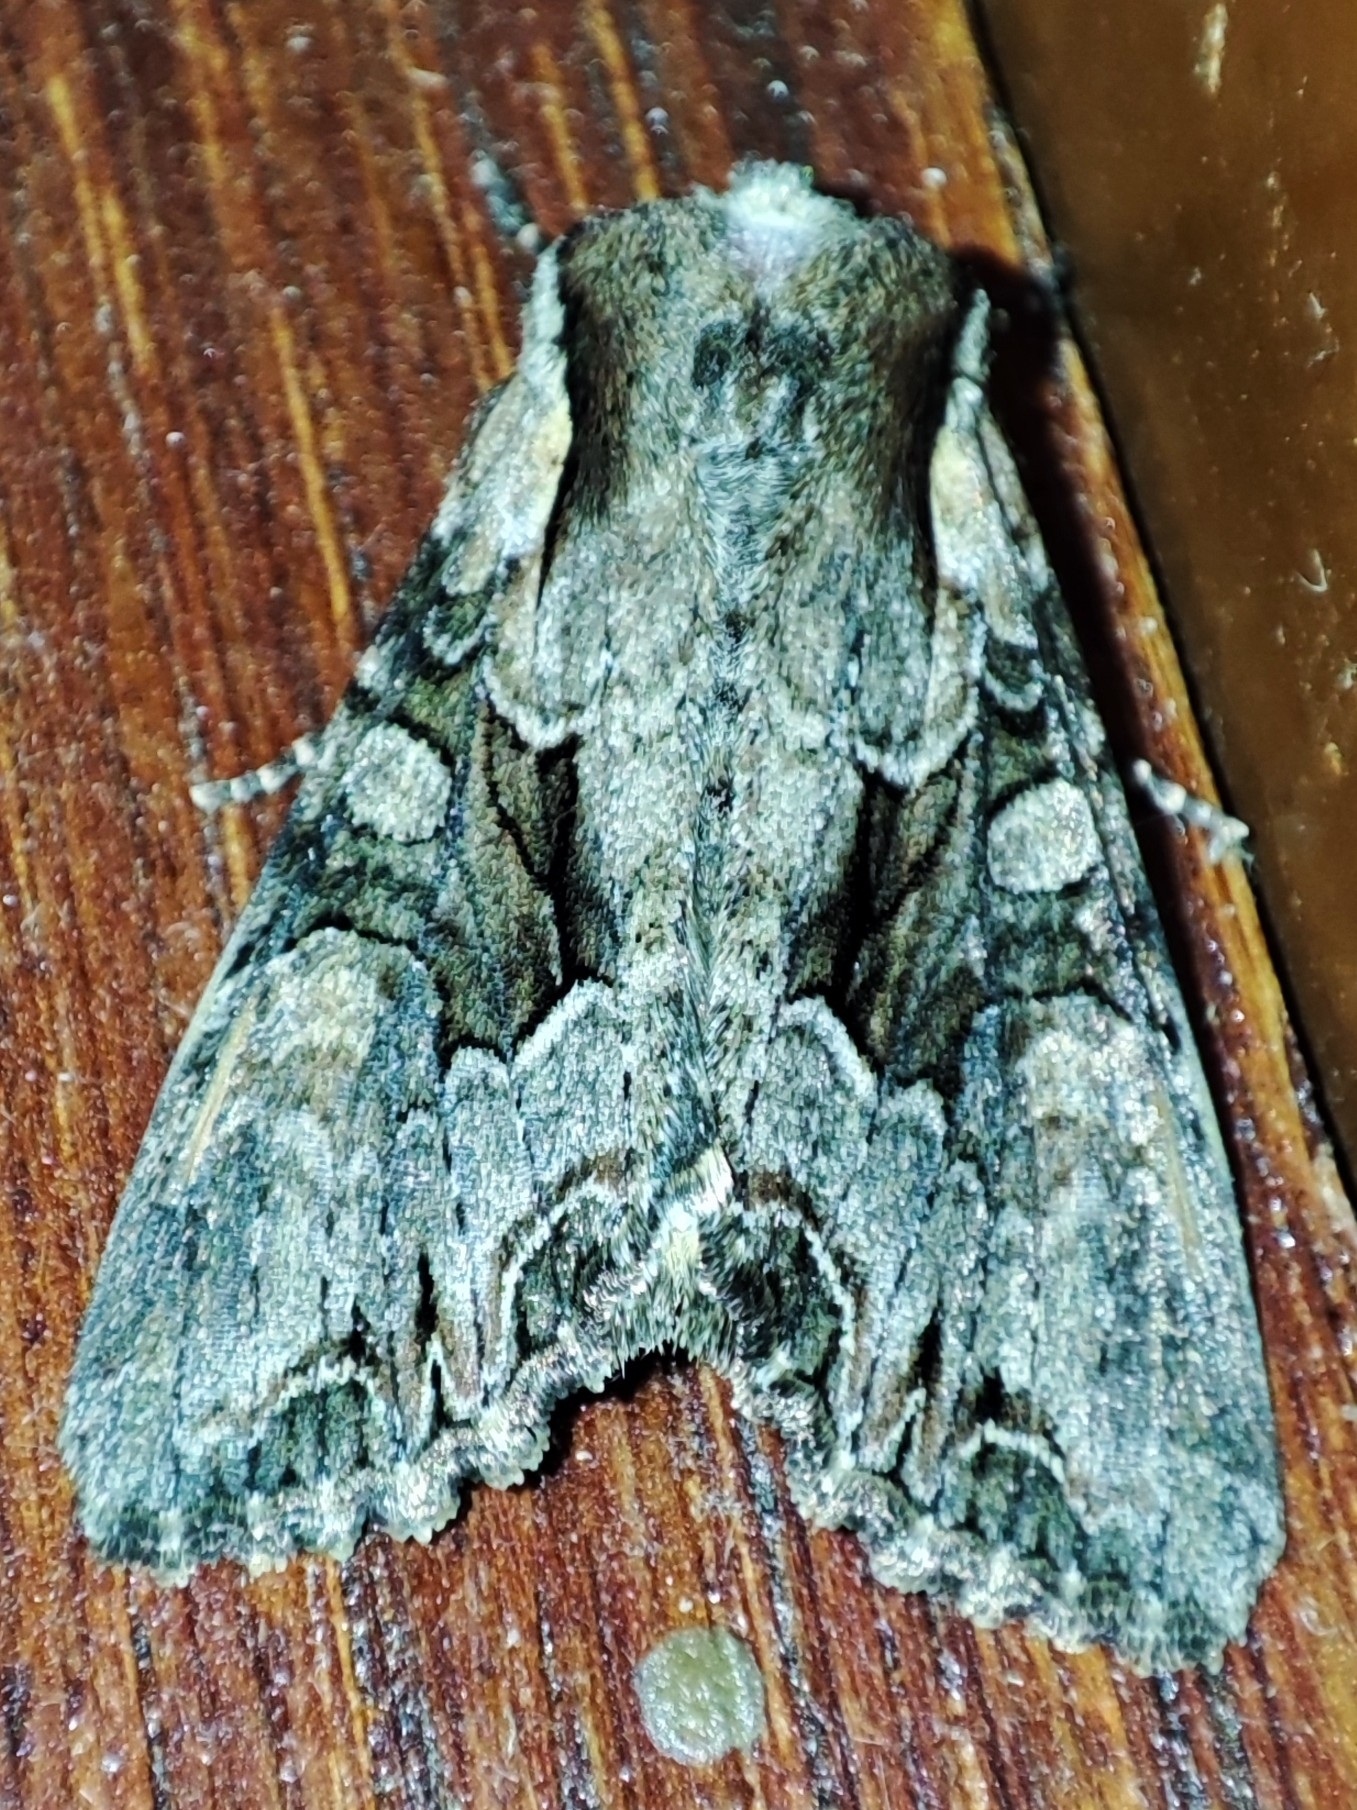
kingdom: Animalia
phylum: Arthropoda
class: Insecta
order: Lepidoptera
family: Noctuidae
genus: Lacanobia
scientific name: Lacanobia w-latinum
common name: Light brocade
